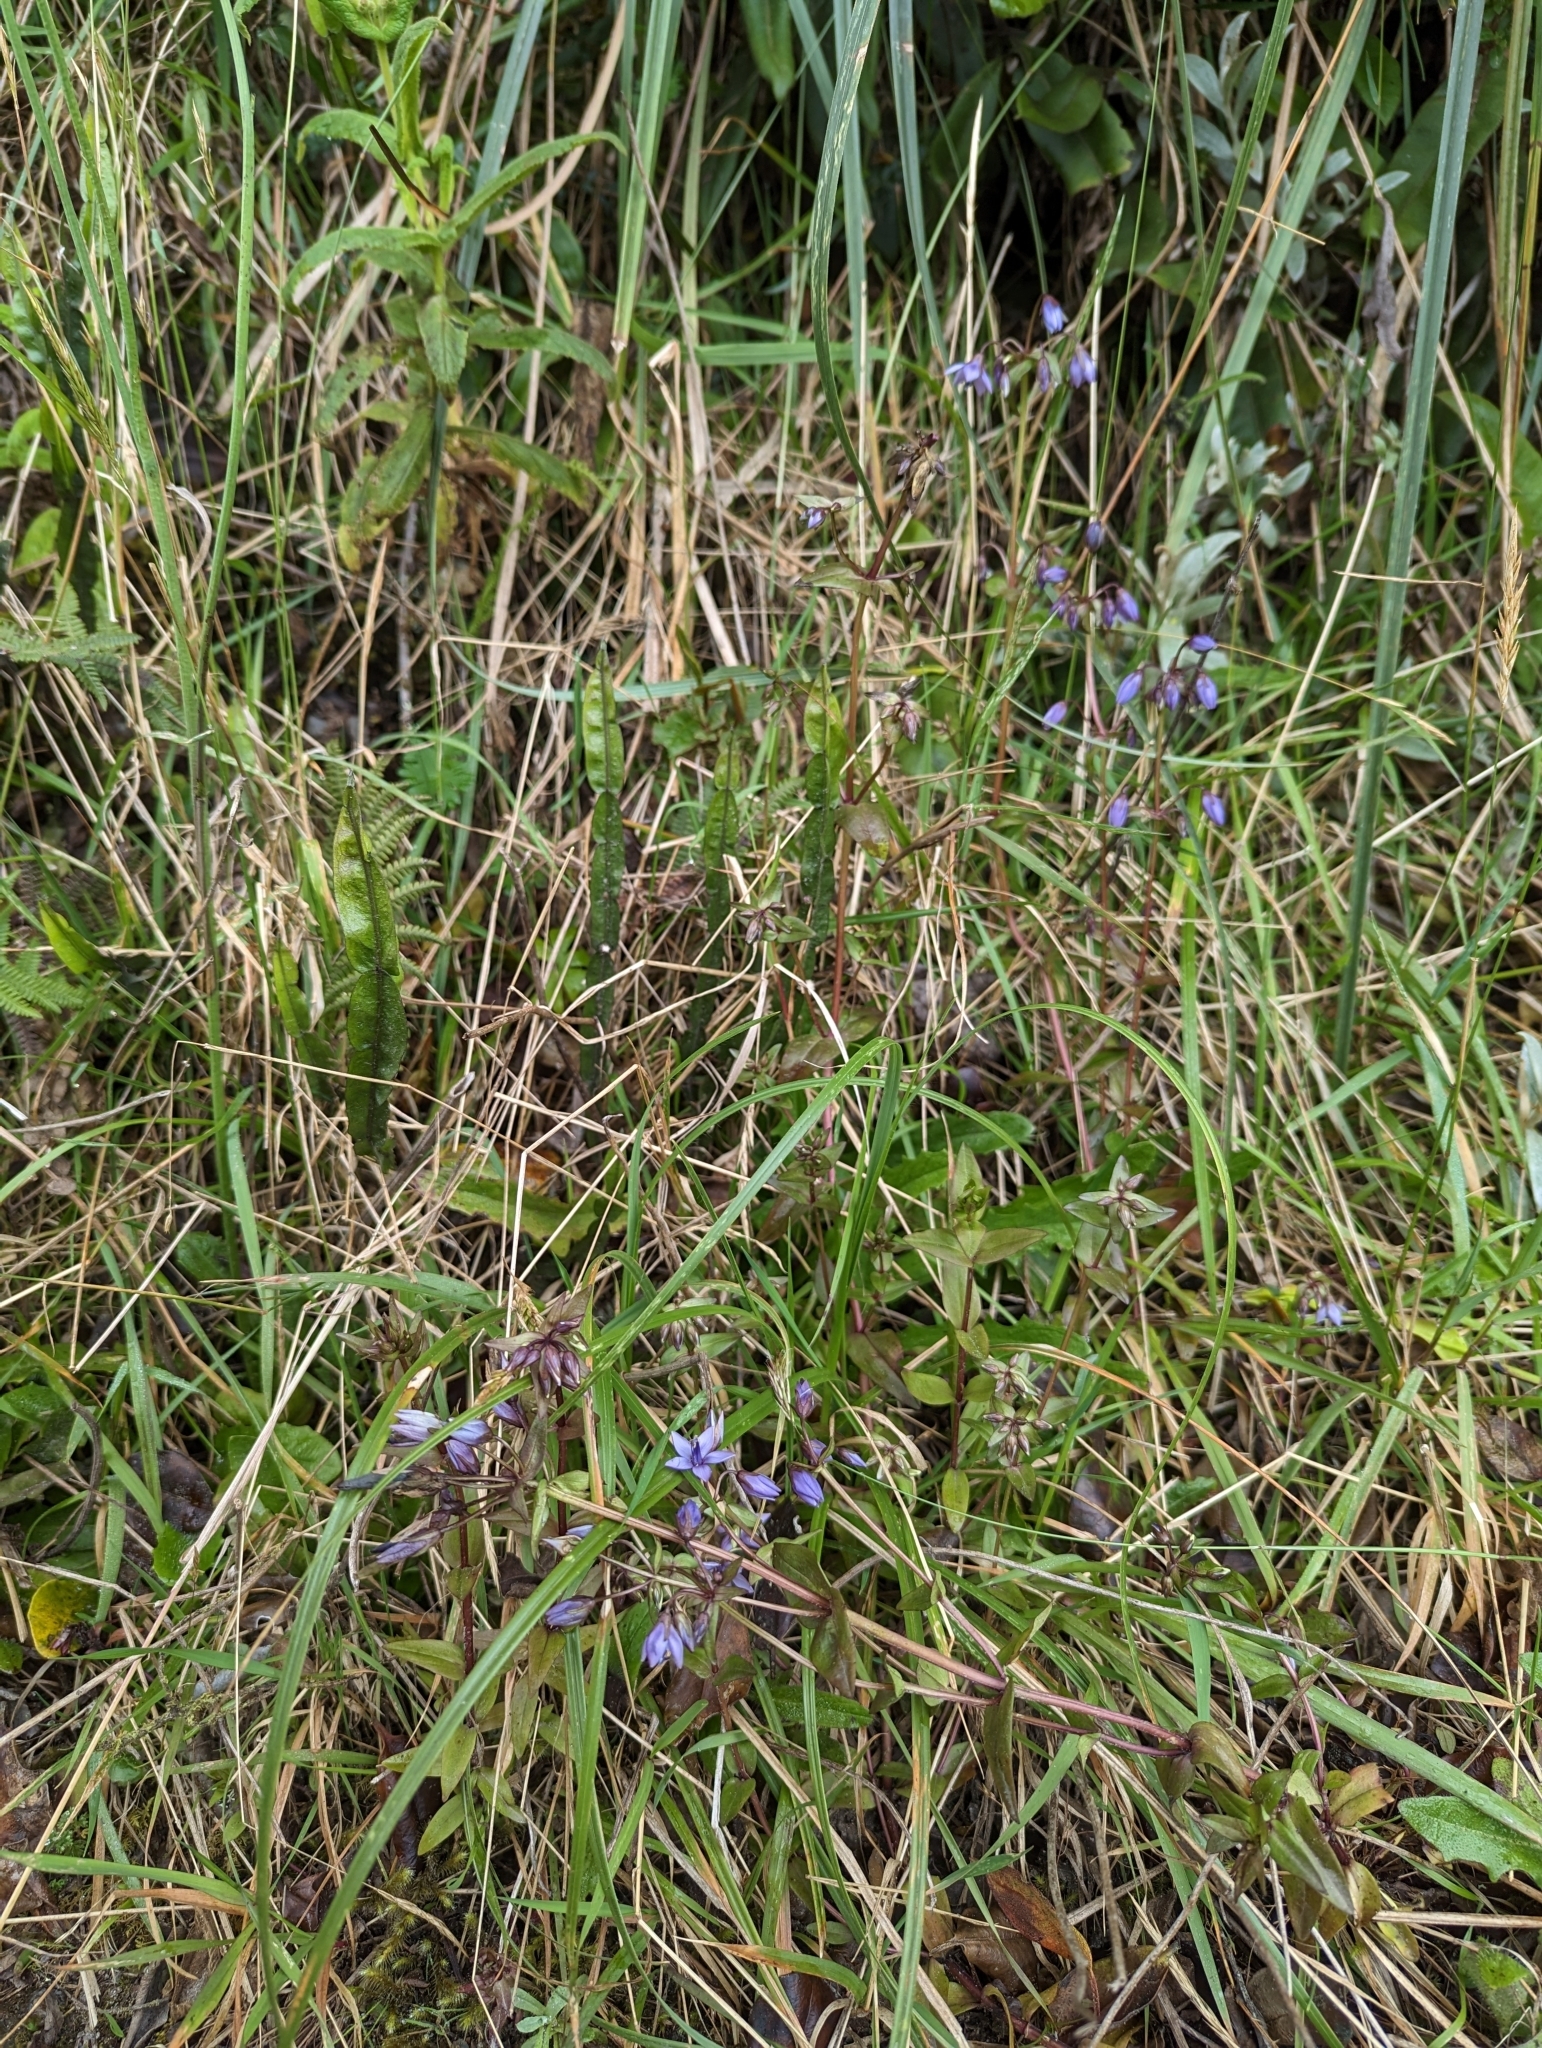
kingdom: Plantae
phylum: Tracheophyta
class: Magnoliopsida
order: Gentianales
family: Gentianaceae
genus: Gentianella
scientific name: Gentianella rapunculoides
